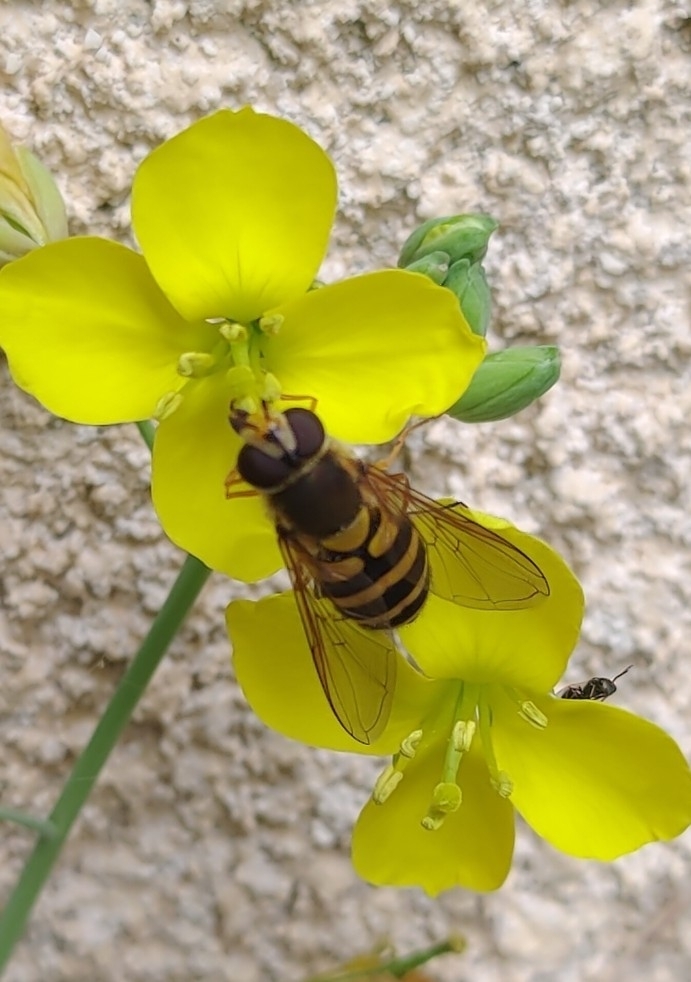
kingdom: Animalia
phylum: Arthropoda
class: Insecta
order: Diptera
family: Syrphidae
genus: Syrphus
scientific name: Syrphus ribesii
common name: Common flower fly
